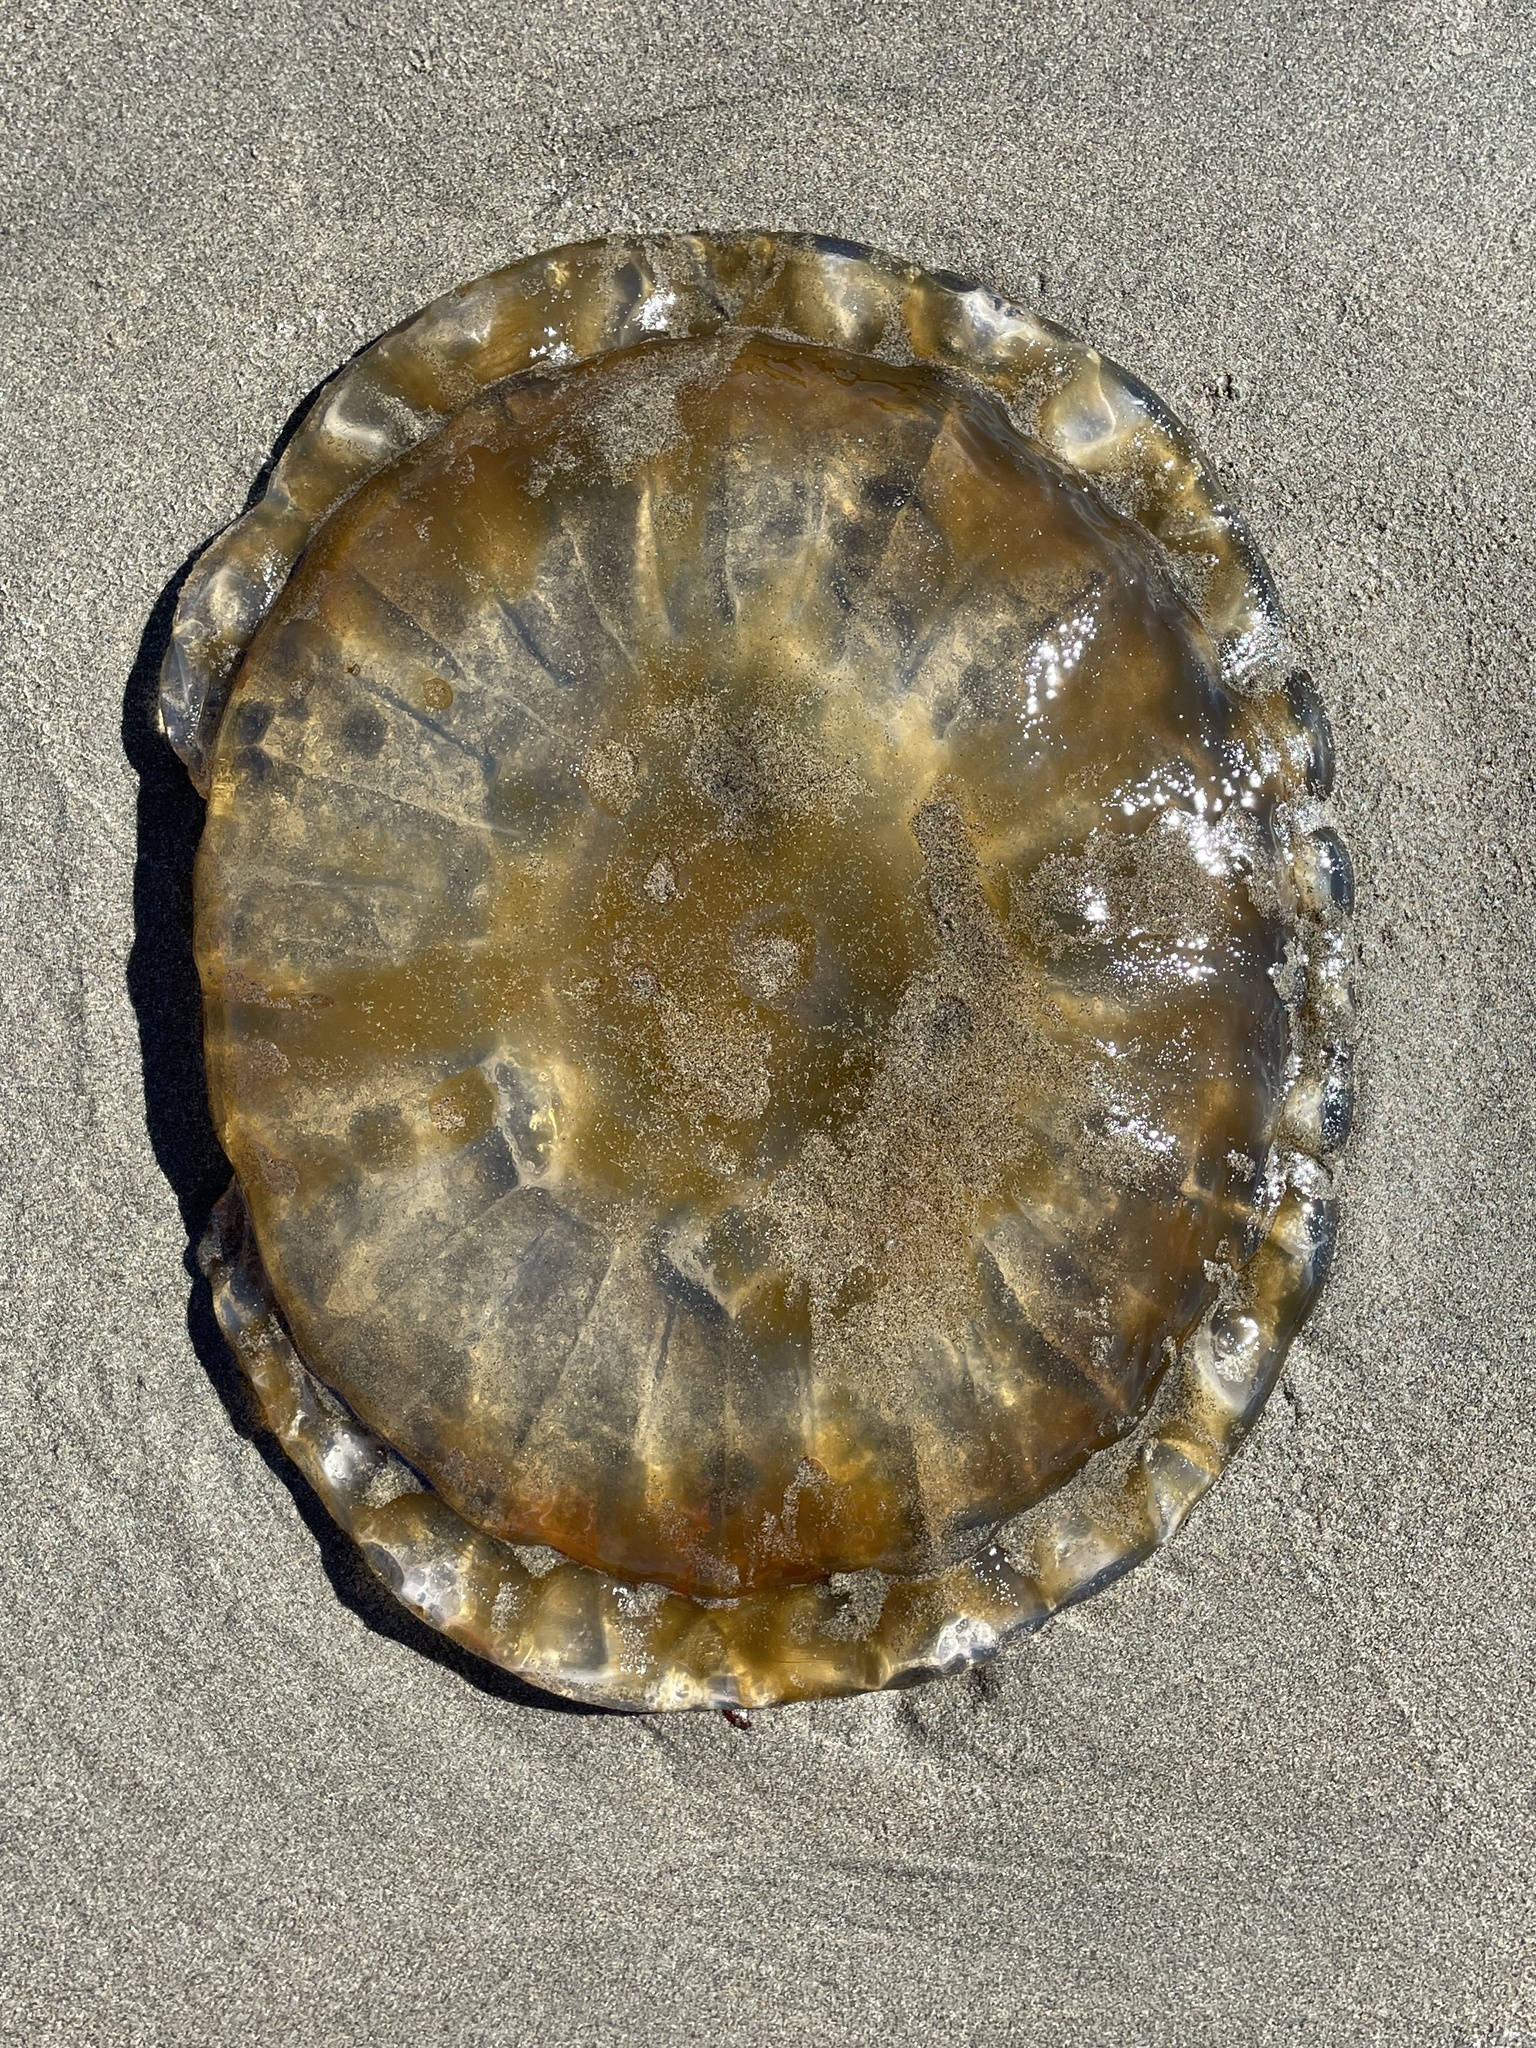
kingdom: Animalia
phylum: Cnidaria
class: Scyphozoa
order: Semaeostomeae
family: Pelagiidae
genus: Chrysaora
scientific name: Chrysaora fuscescens
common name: Sea nettle
